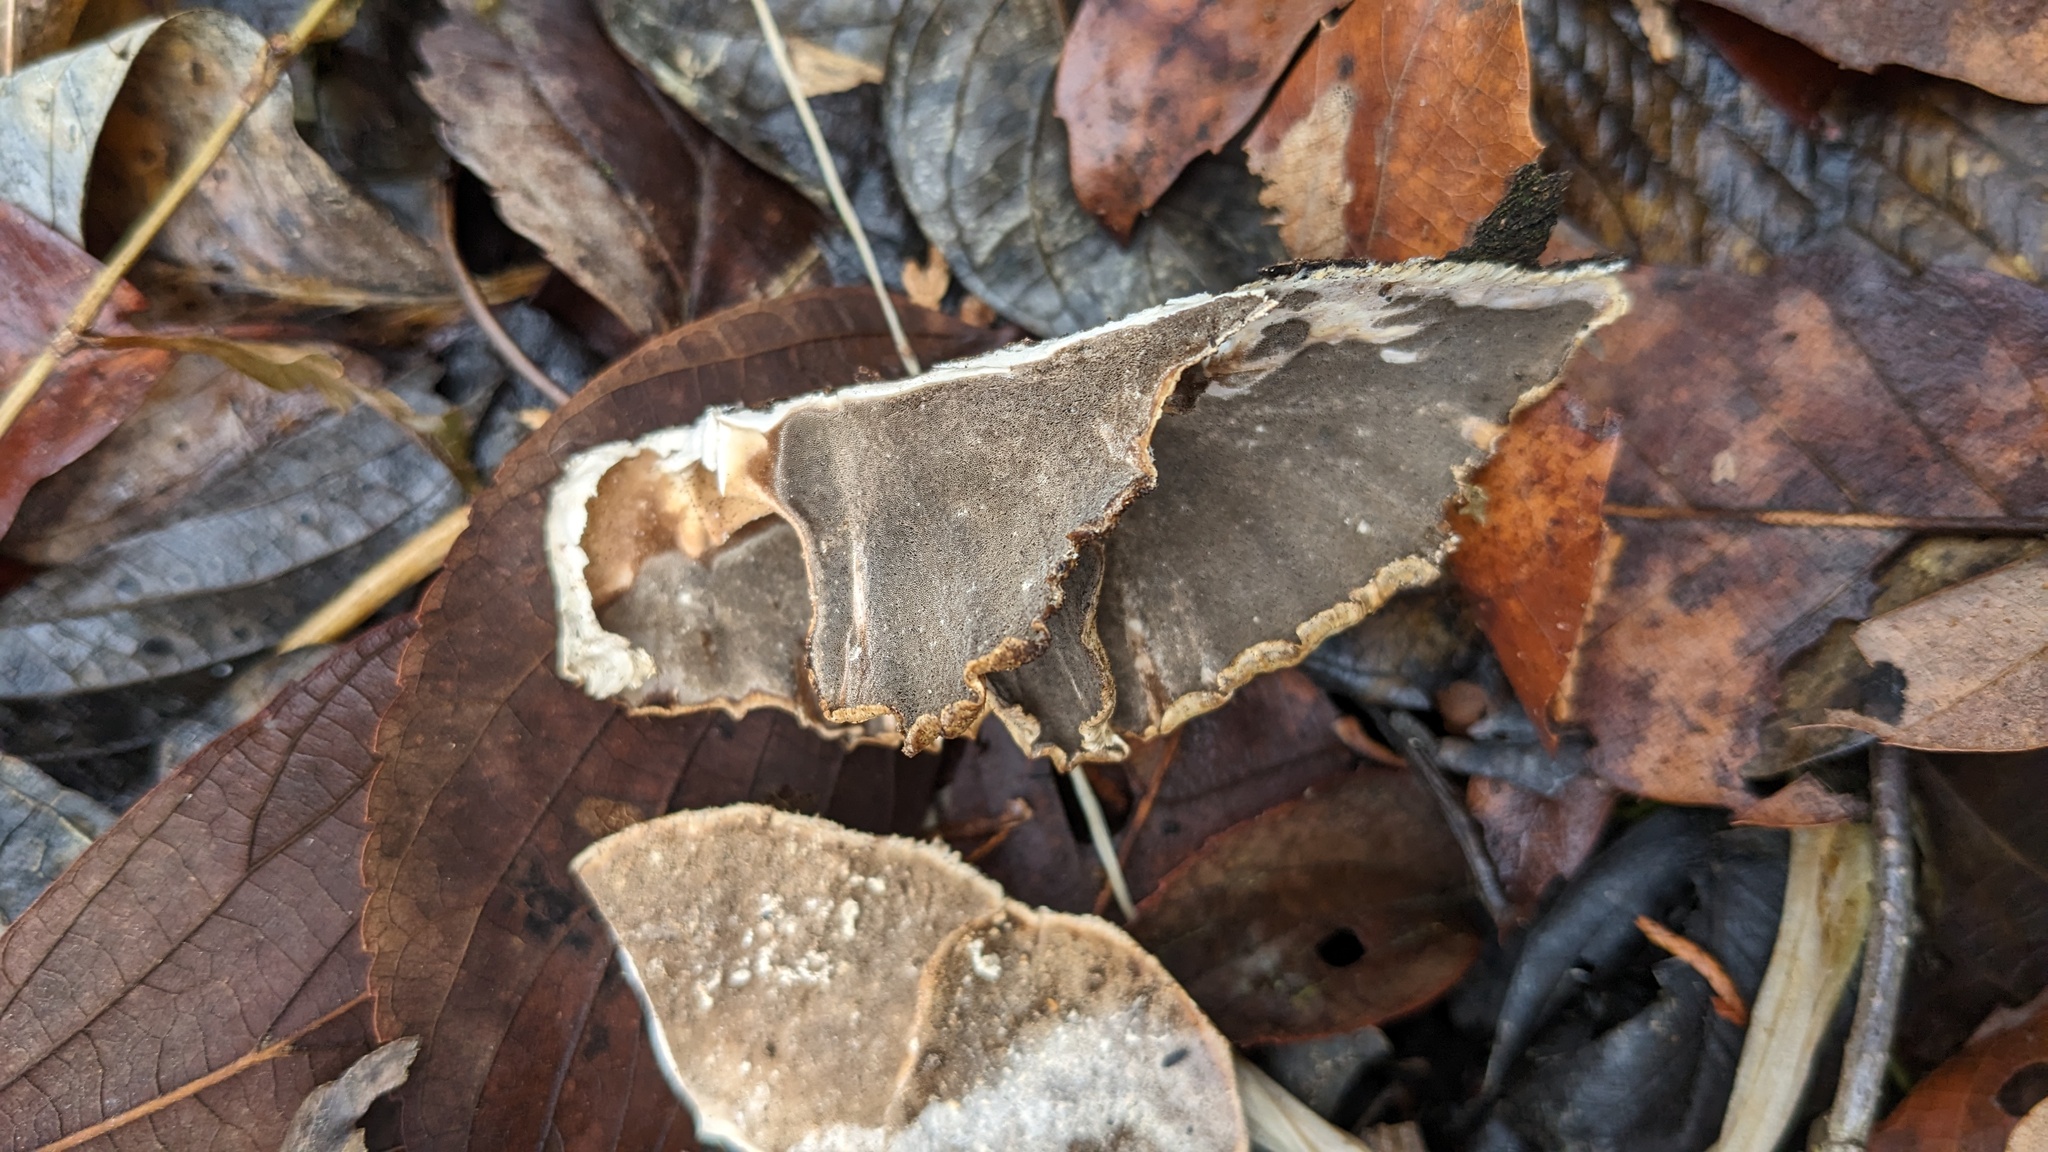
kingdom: Fungi
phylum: Basidiomycota
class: Agaricomycetes
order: Polyporales
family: Phanerochaetaceae
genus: Bjerkandera
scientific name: Bjerkandera adusta
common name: Smoky bracket
